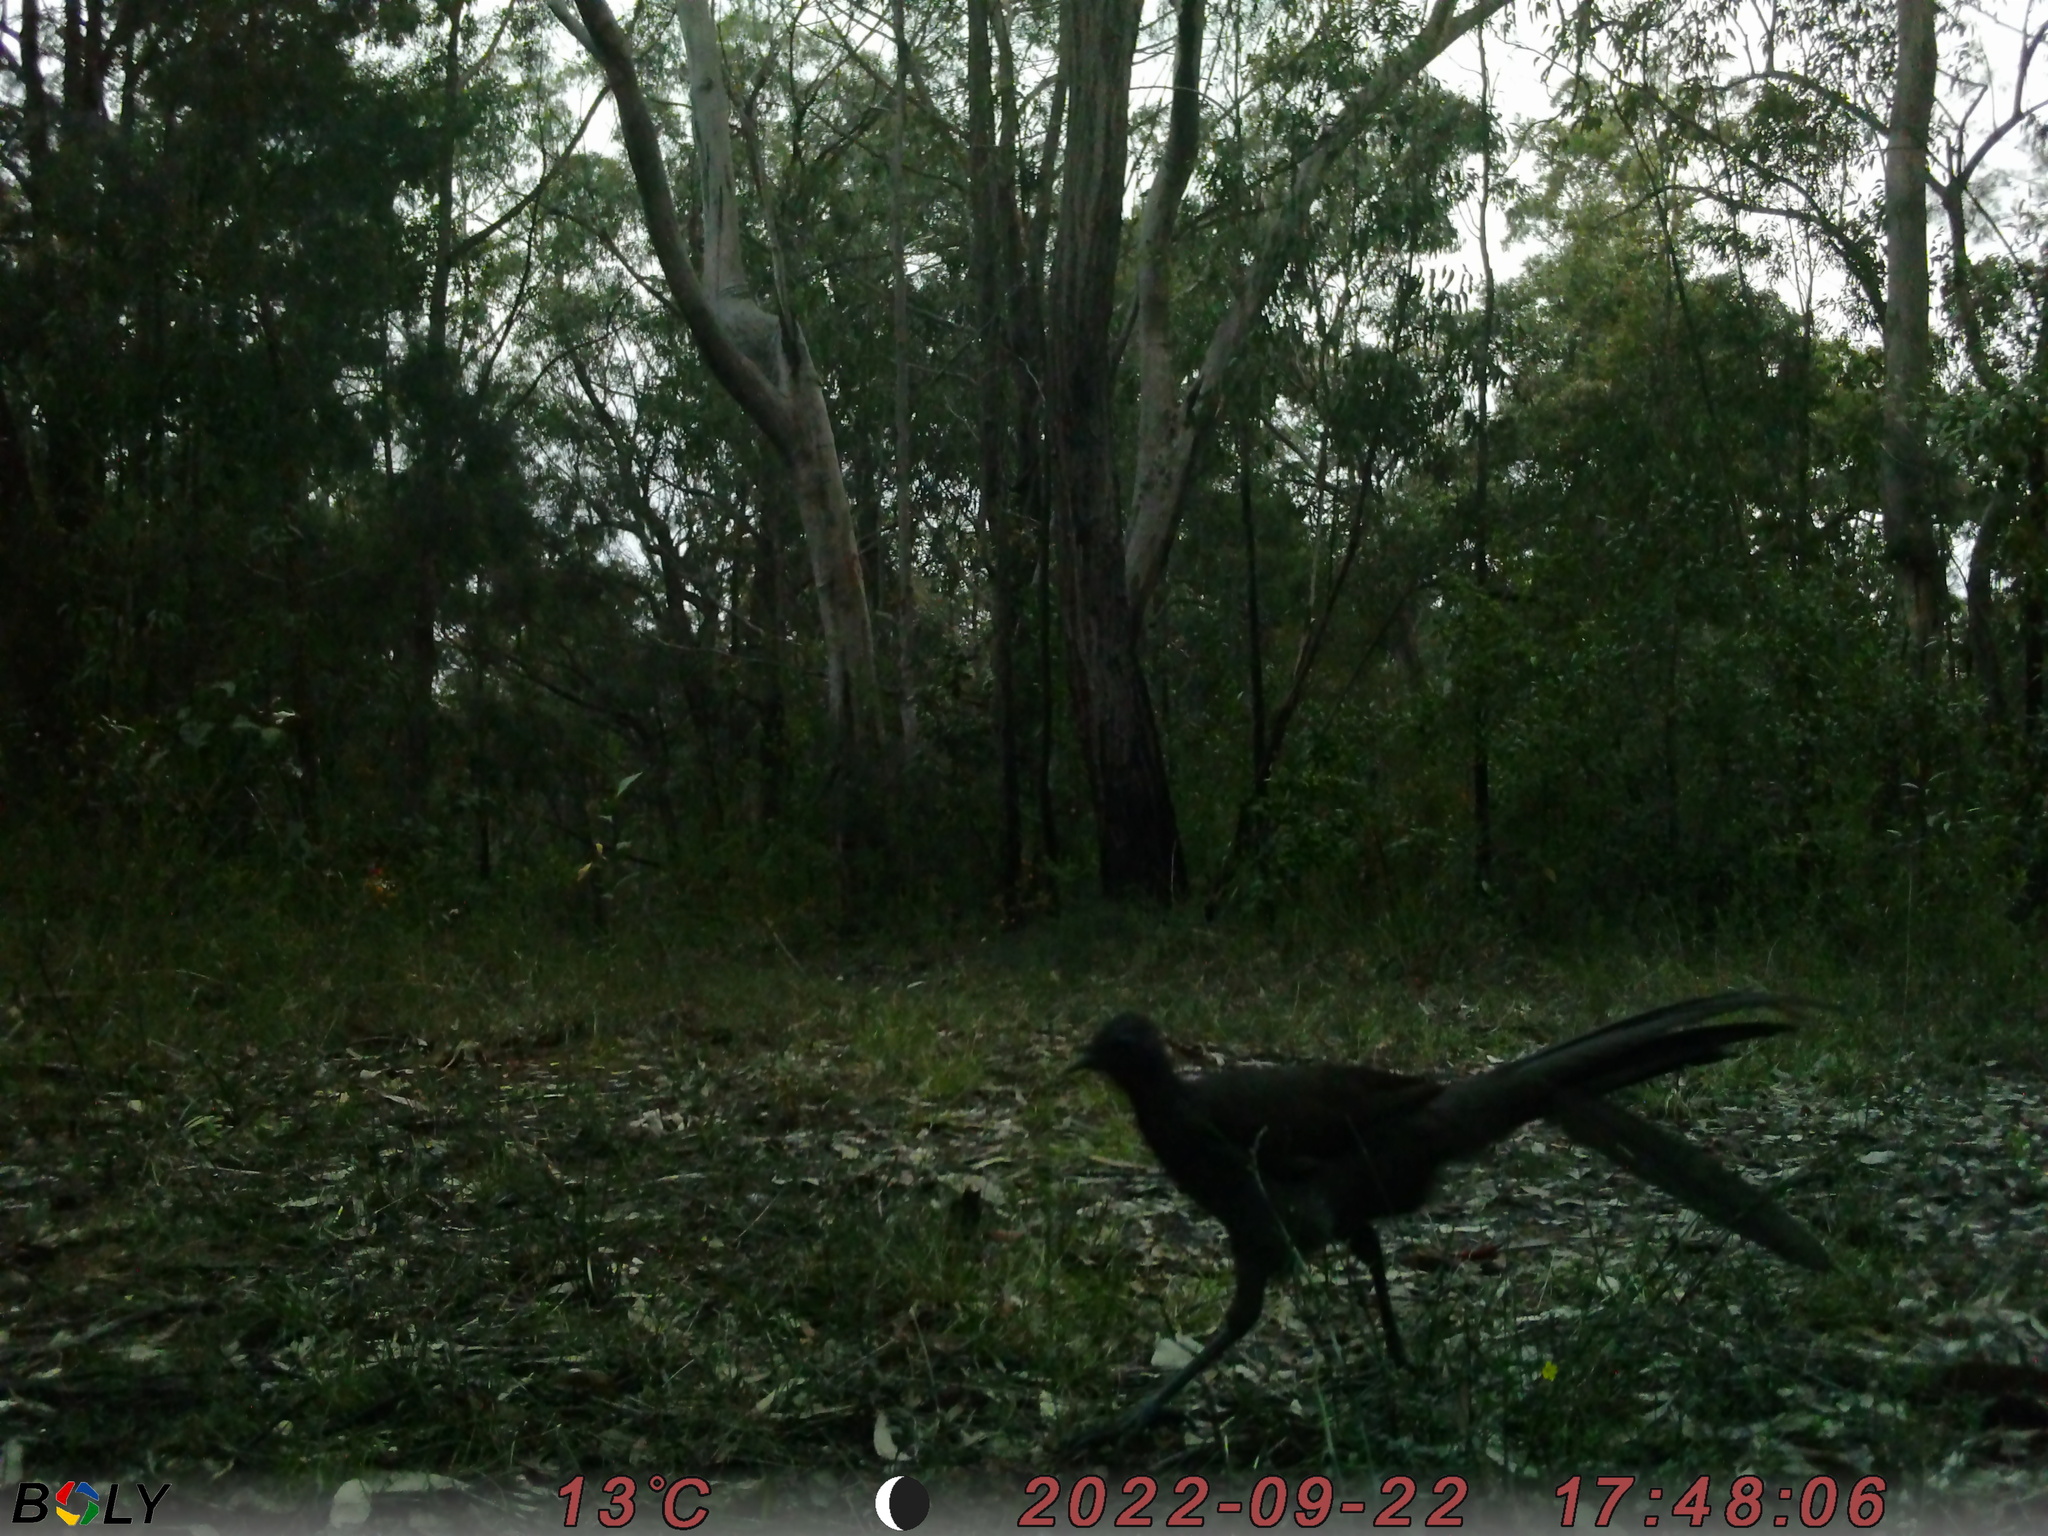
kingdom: Animalia
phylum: Chordata
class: Aves
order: Passeriformes
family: Menuridae
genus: Menura
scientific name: Menura novaehollandiae
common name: Superb lyrebird
